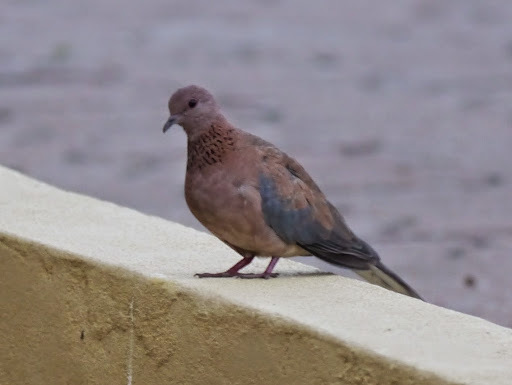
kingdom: Animalia
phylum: Chordata
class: Aves
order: Columbiformes
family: Columbidae
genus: Spilopelia
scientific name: Spilopelia senegalensis
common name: Laughing dove
